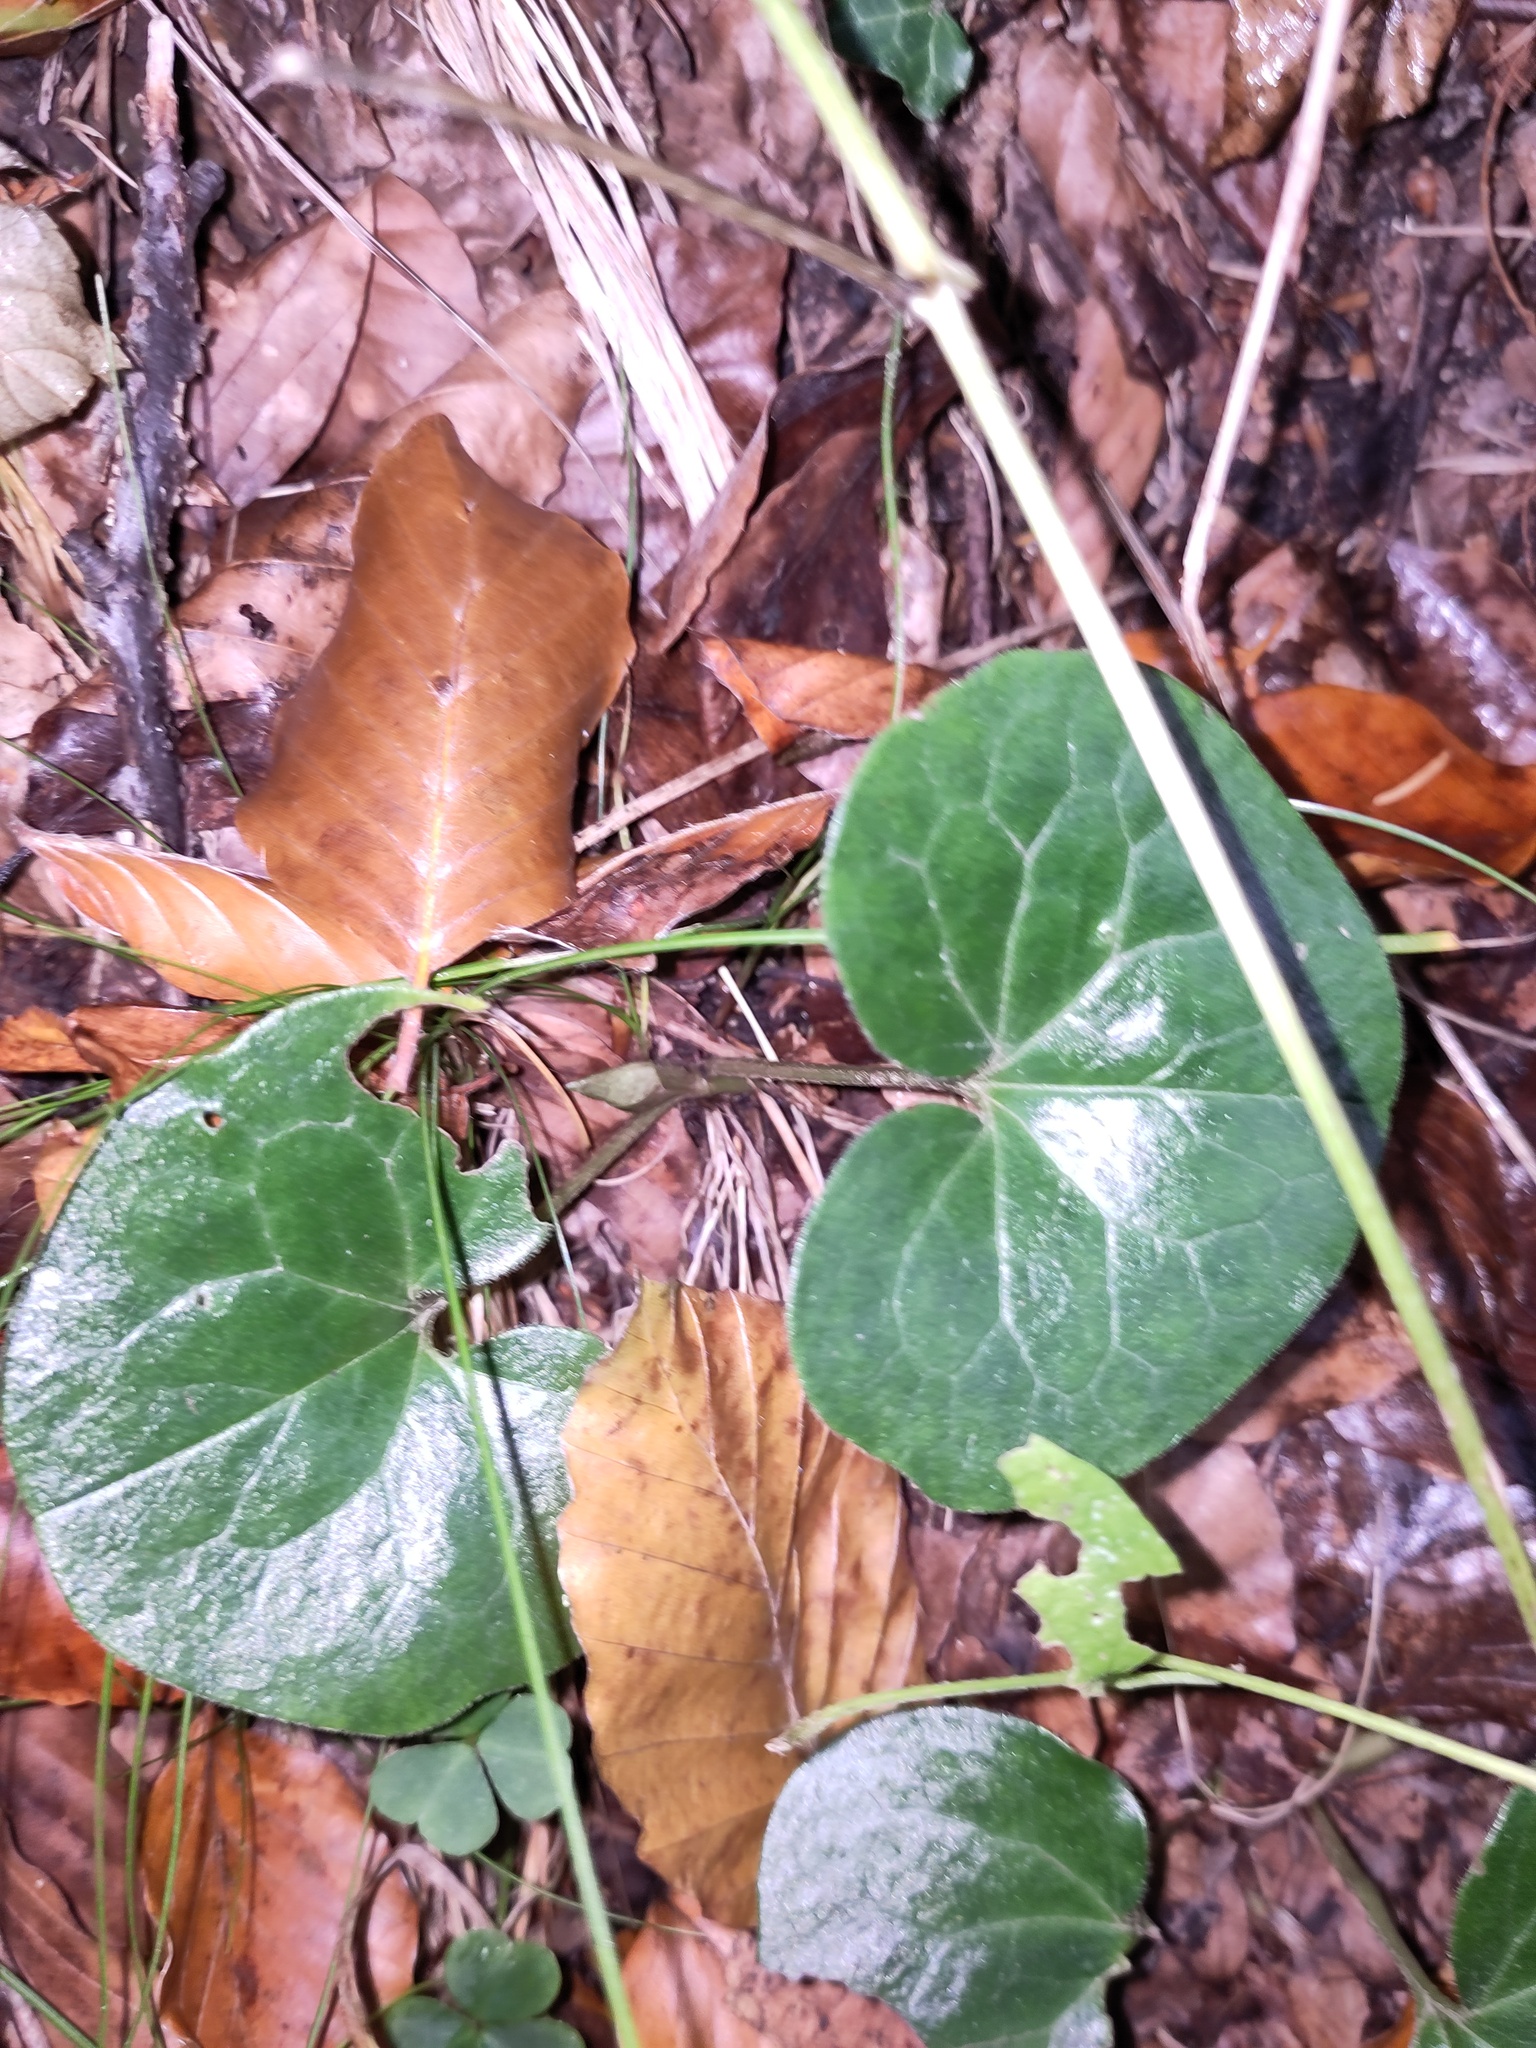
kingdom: Plantae
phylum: Tracheophyta
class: Magnoliopsida
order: Piperales
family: Aristolochiaceae
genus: Asarum
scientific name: Asarum europaeum
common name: Asarabacca
